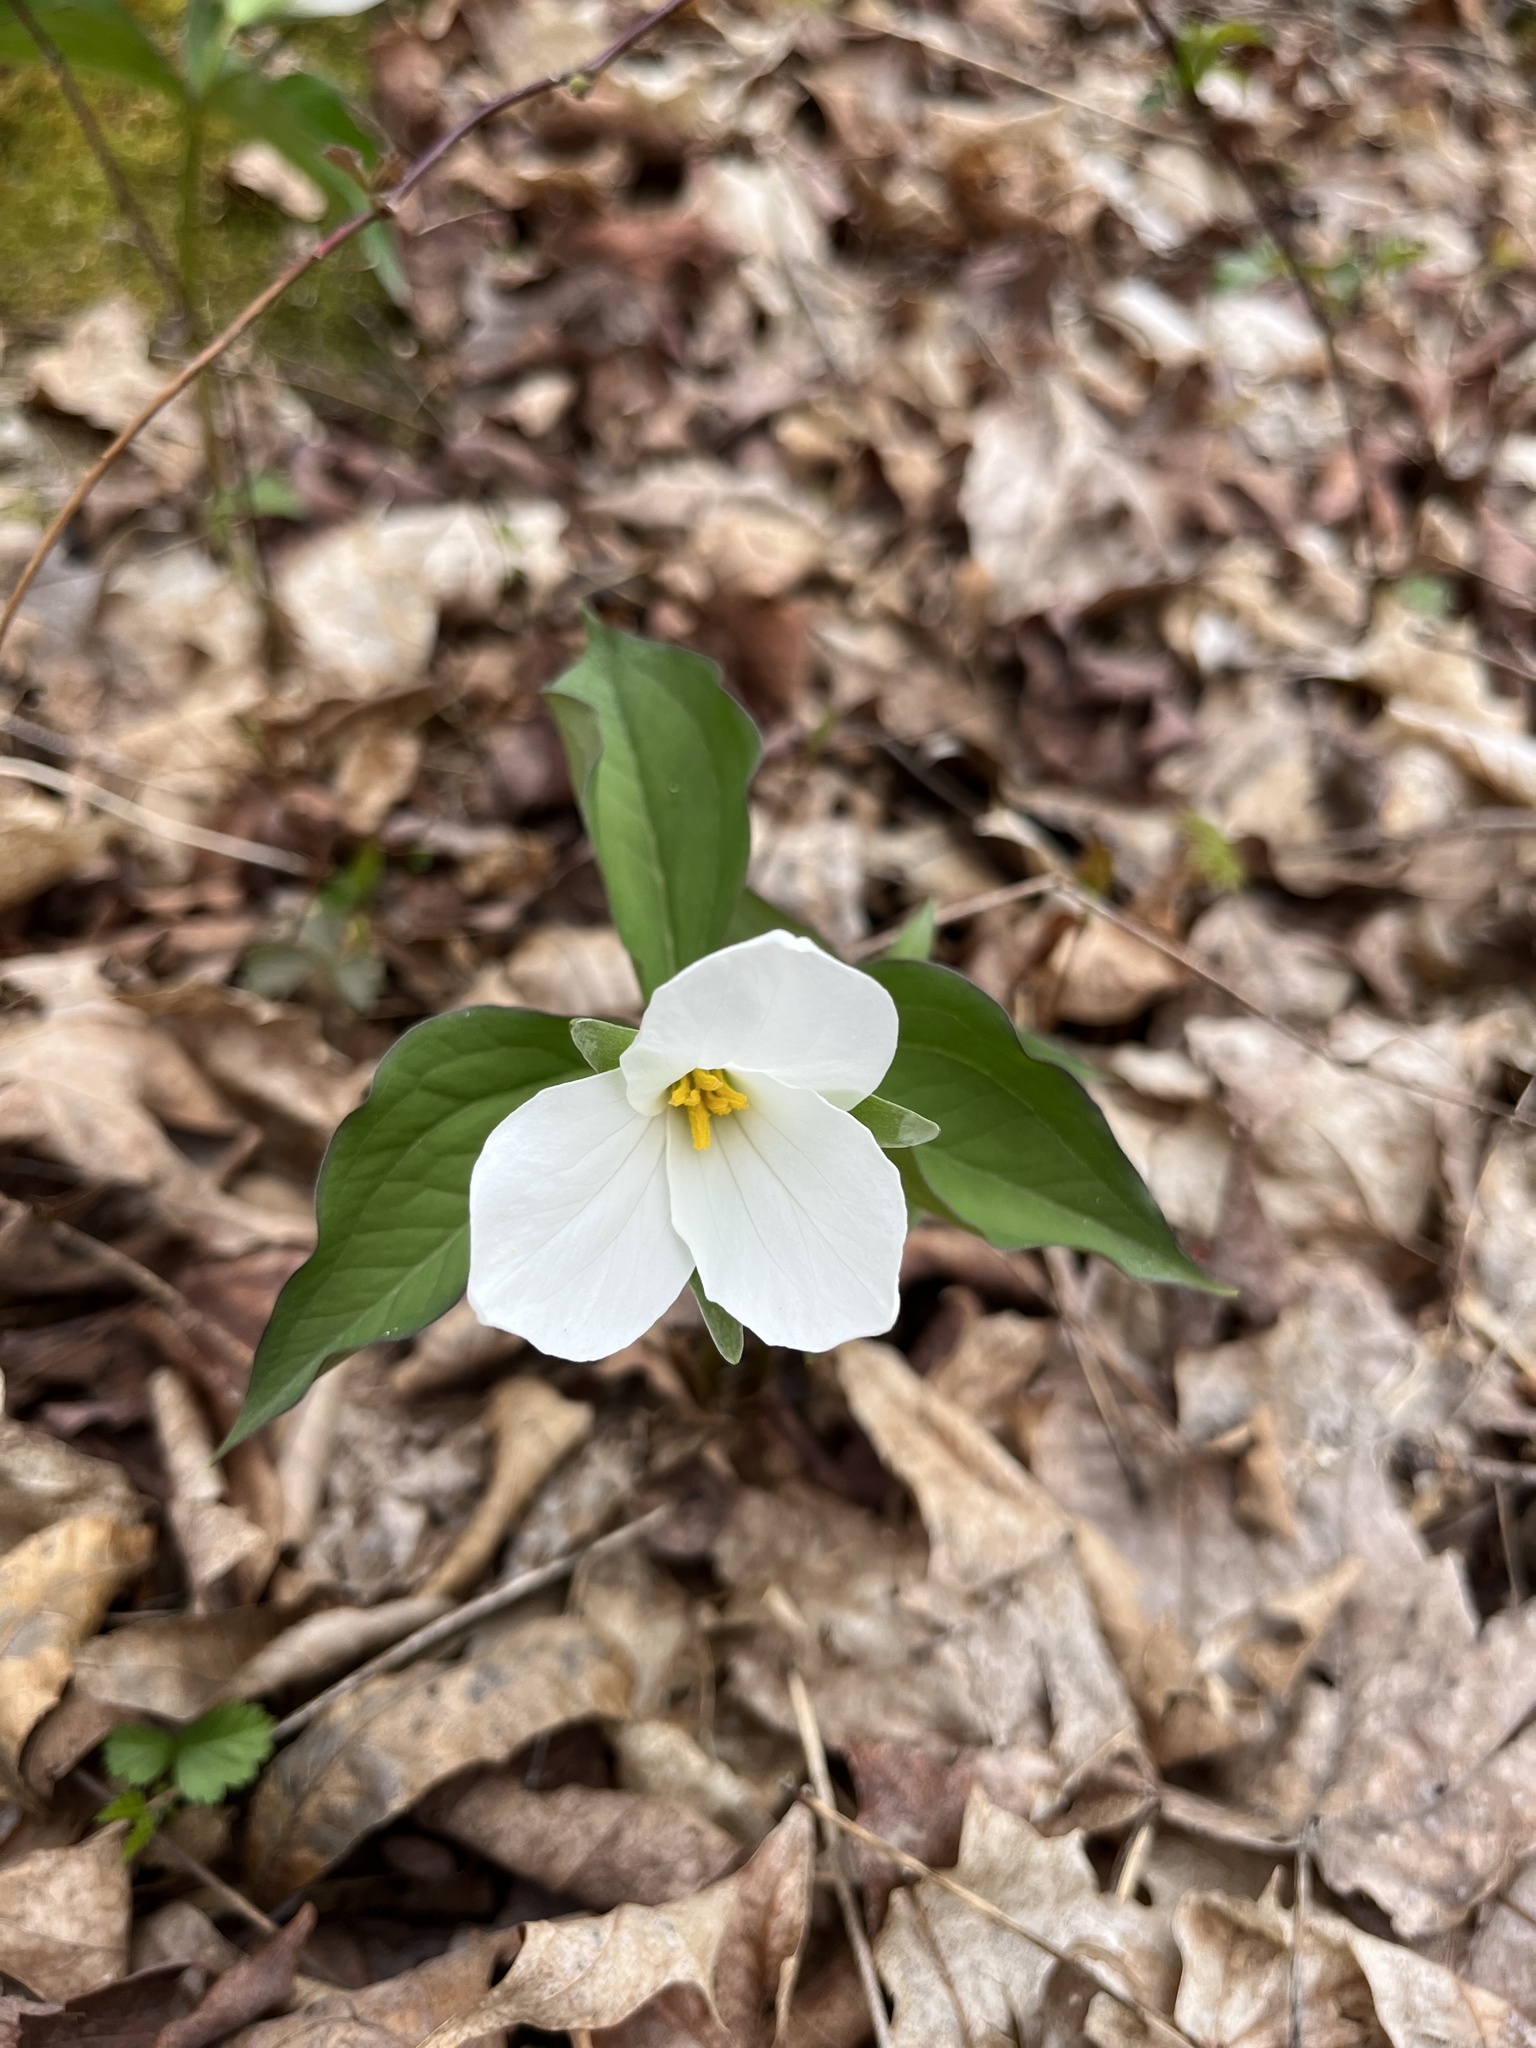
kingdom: Plantae
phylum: Tracheophyta
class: Liliopsida
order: Liliales
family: Melanthiaceae
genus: Trillium
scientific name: Trillium grandiflorum
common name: Great white trillium
